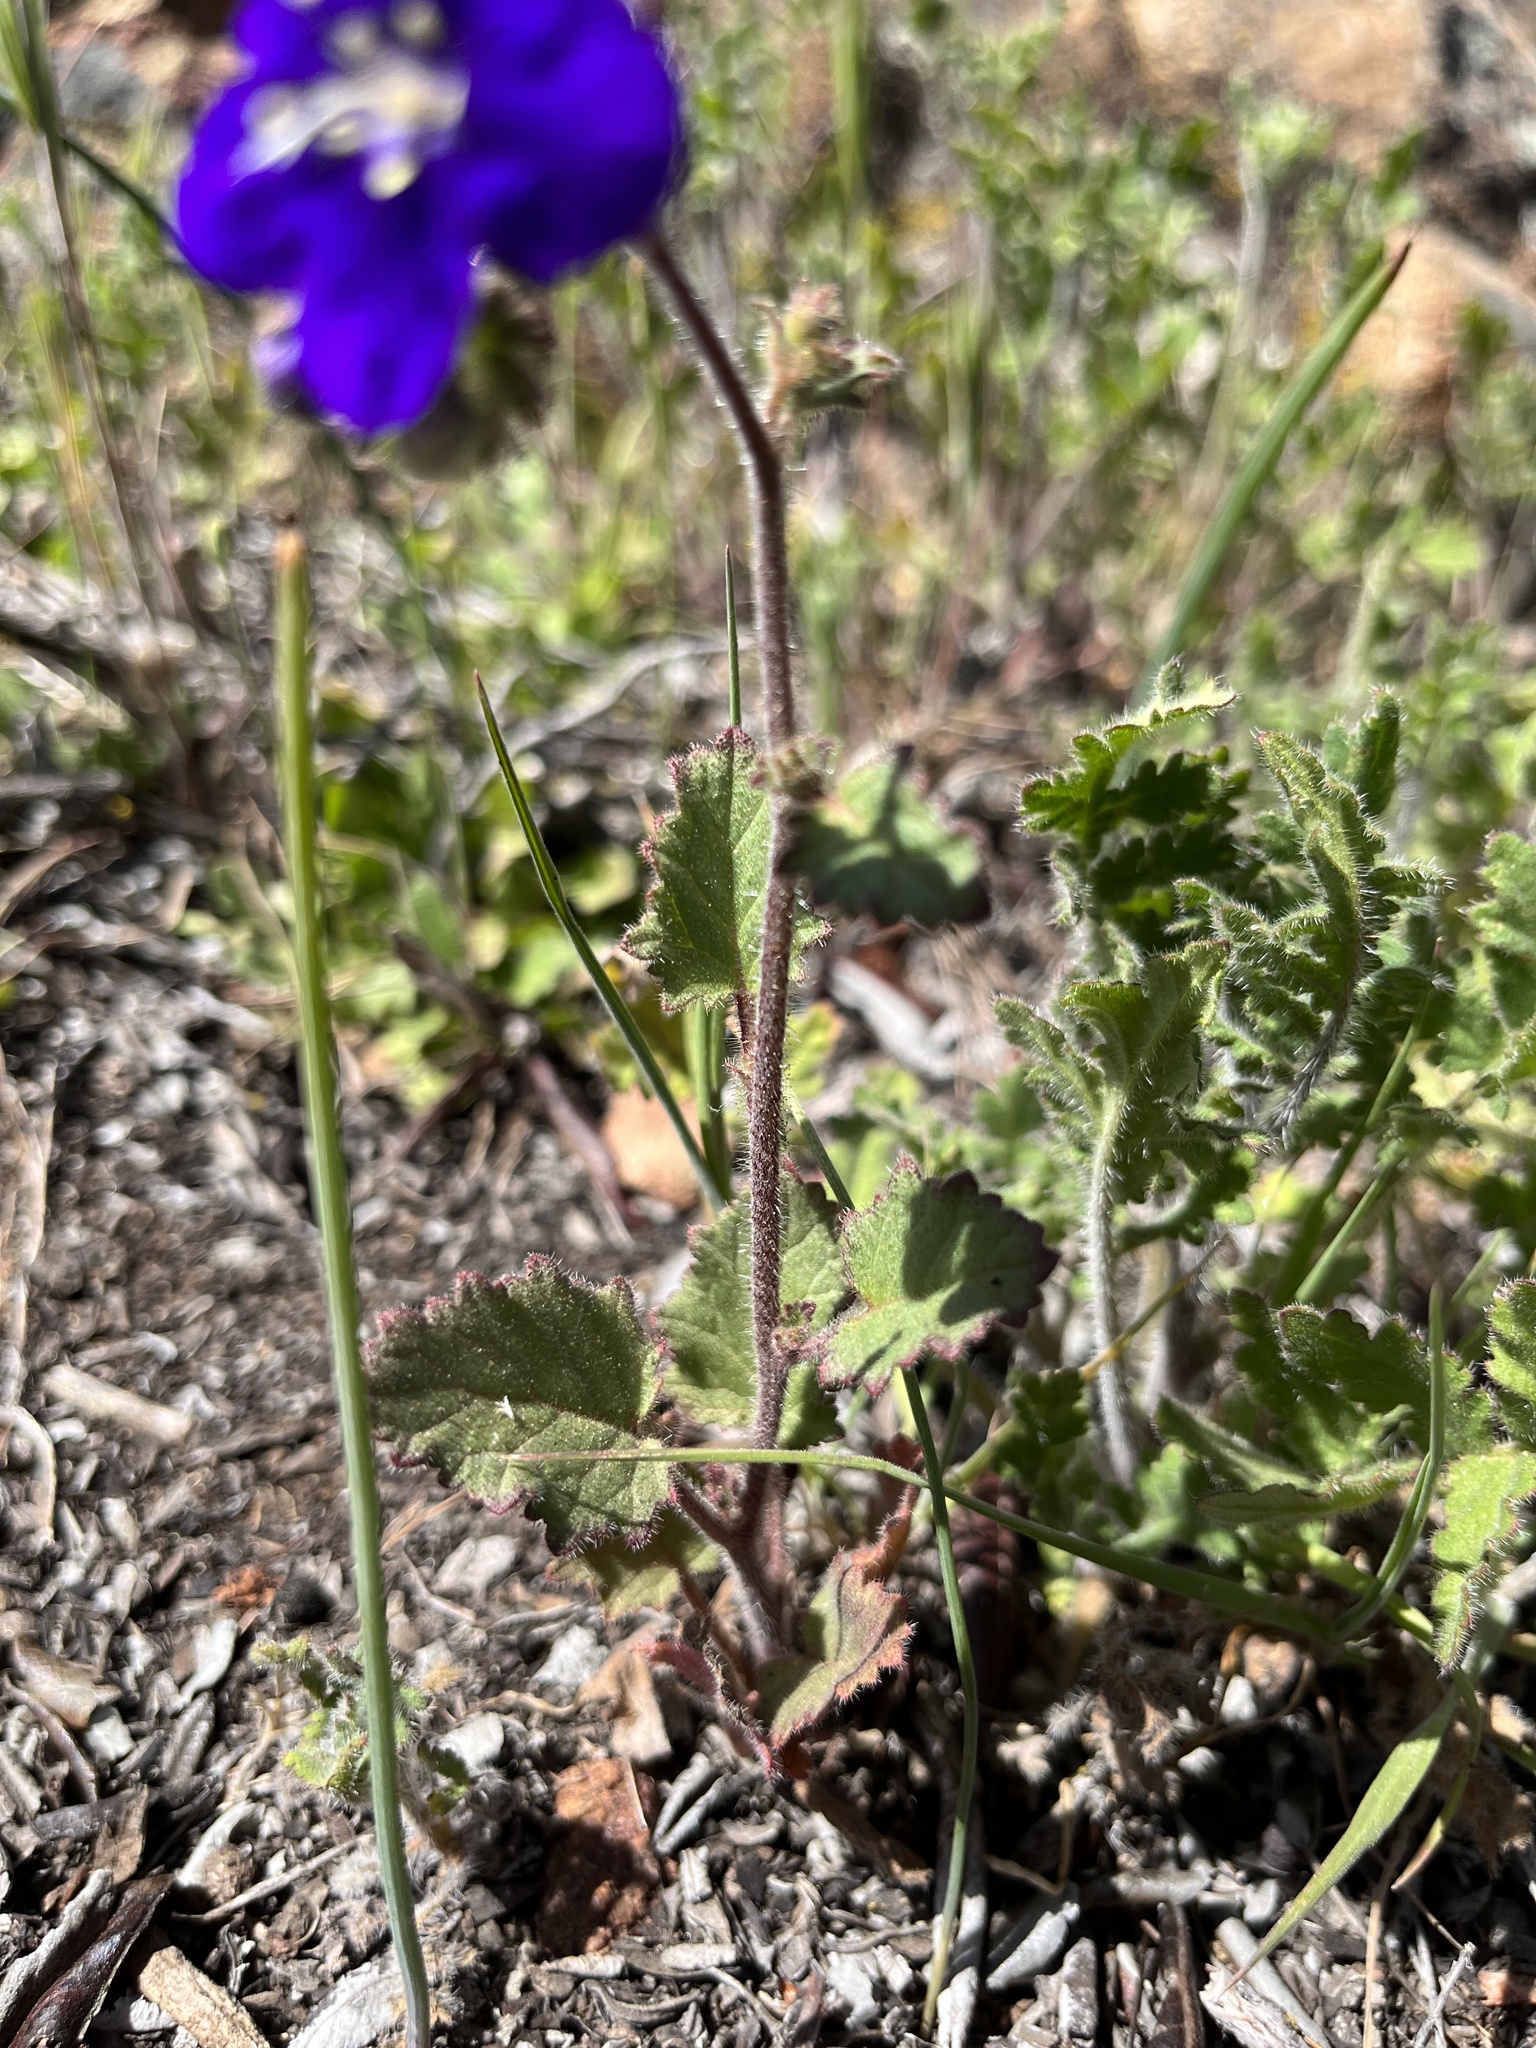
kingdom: Plantae
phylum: Tracheophyta
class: Magnoliopsida
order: Boraginales
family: Hydrophyllaceae
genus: Phacelia
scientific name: Phacelia parryi
